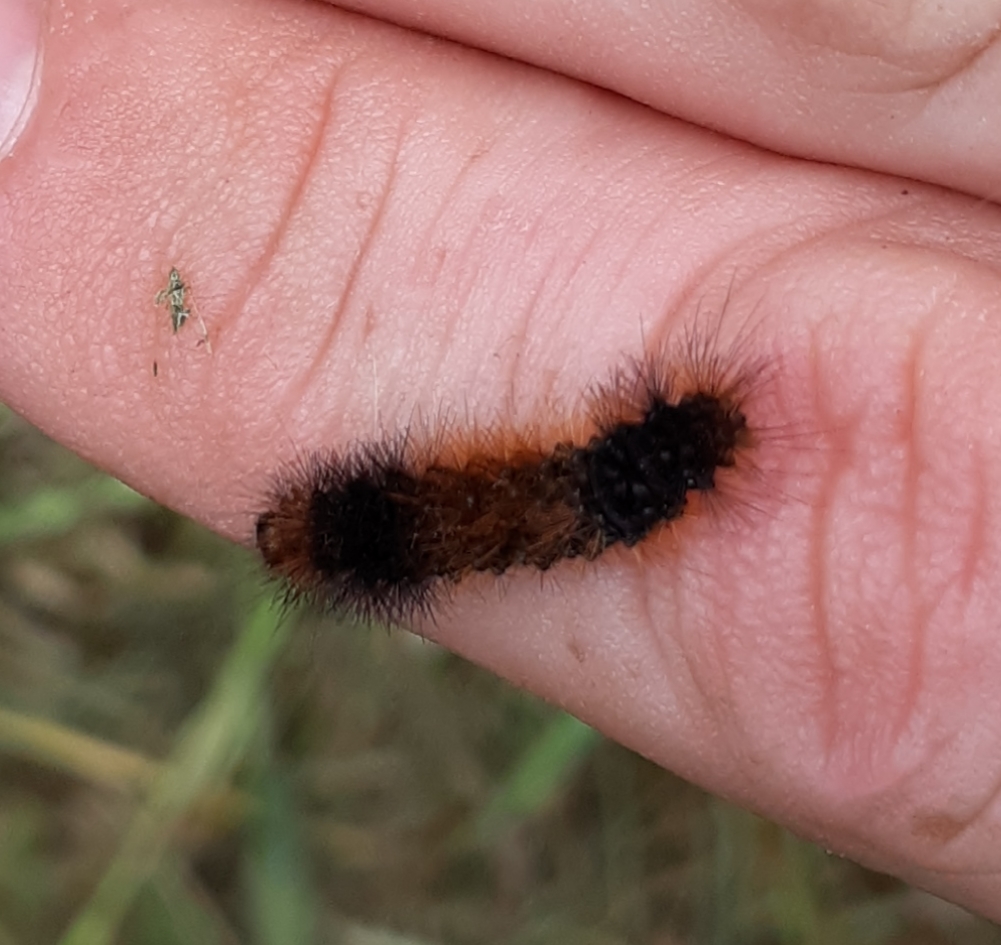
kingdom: Animalia
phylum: Arthropoda
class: Insecta
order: Lepidoptera
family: Erebidae
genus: Pyrrharctia
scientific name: Pyrrharctia isabella
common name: Isabella tiger moth
